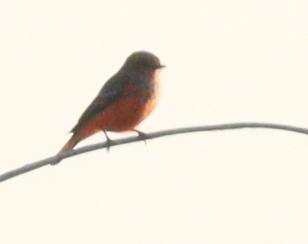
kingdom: Animalia
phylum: Chordata
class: Aves
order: Passeriformes
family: Tyrannidae
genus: Pyrocephalus
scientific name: Pyrocephalus rubinus
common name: Vermilion flycatcher
